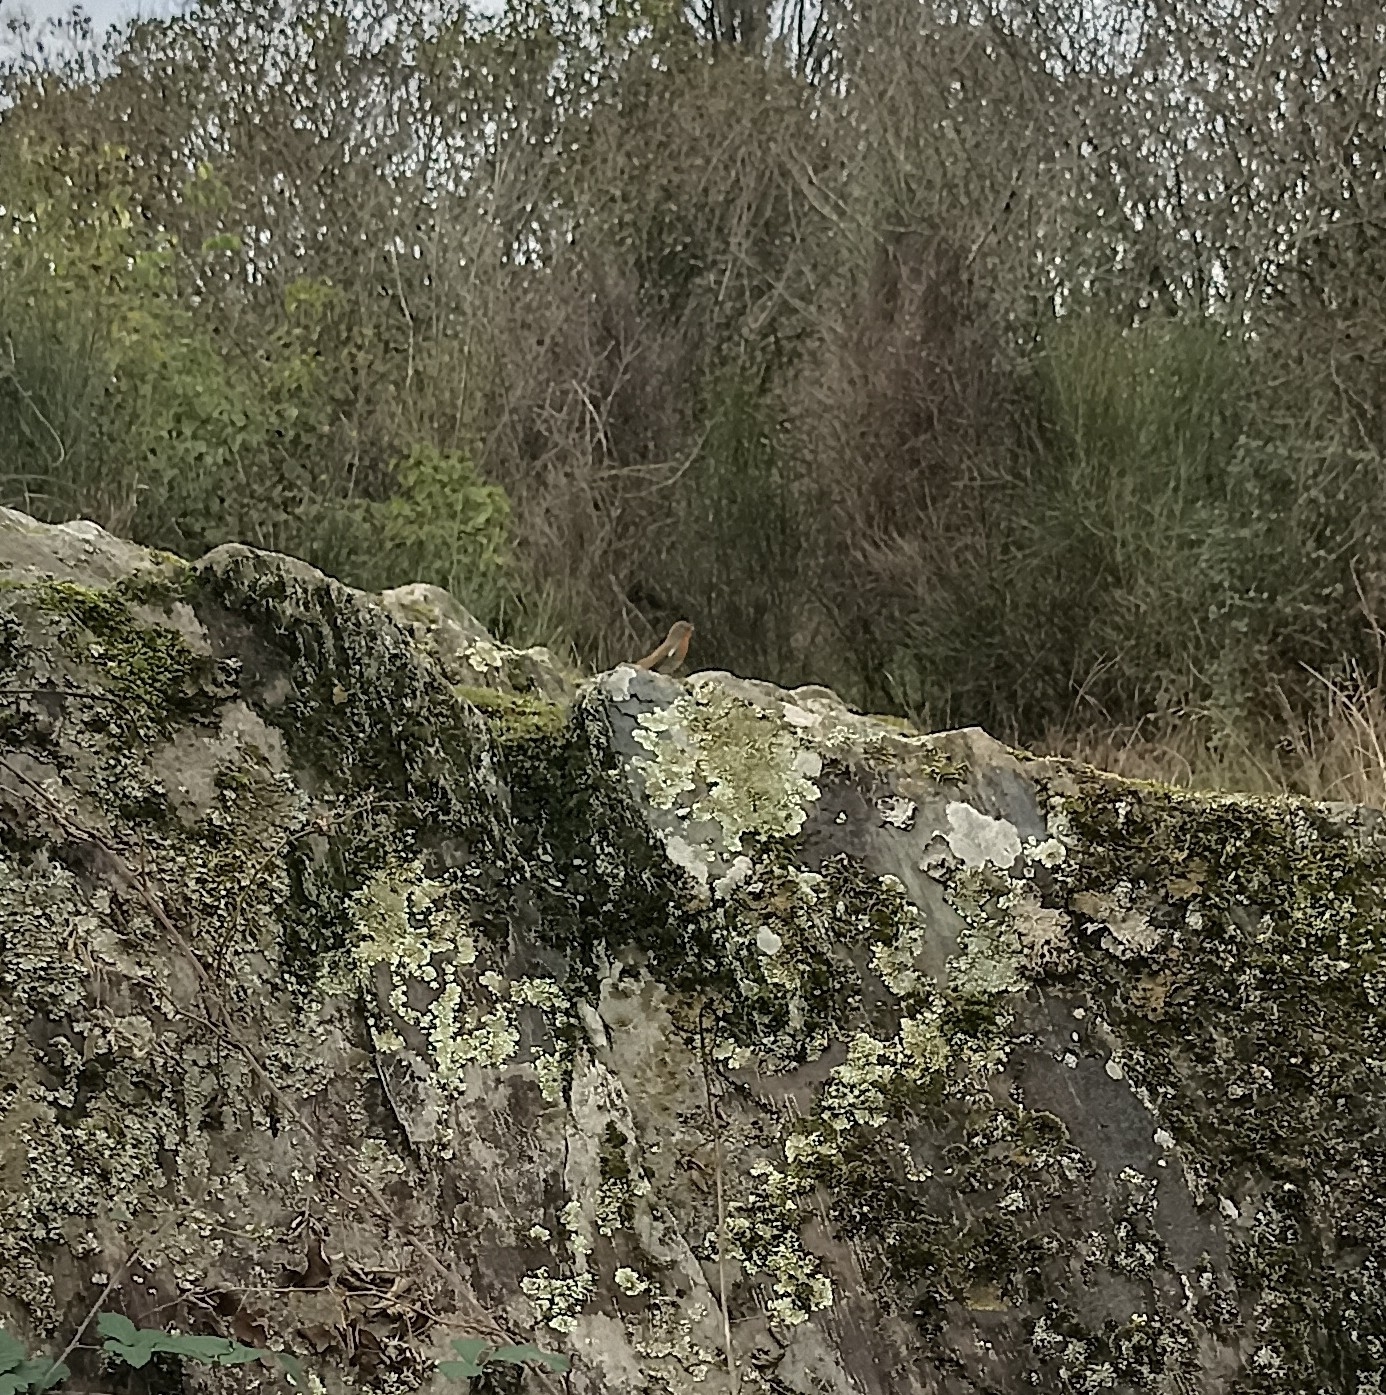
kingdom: Animalia
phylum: Chordata
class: Aves
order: Passeriformes
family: Muscicapidae
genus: Erithacus
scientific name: Erithacus rubecula
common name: European robin
